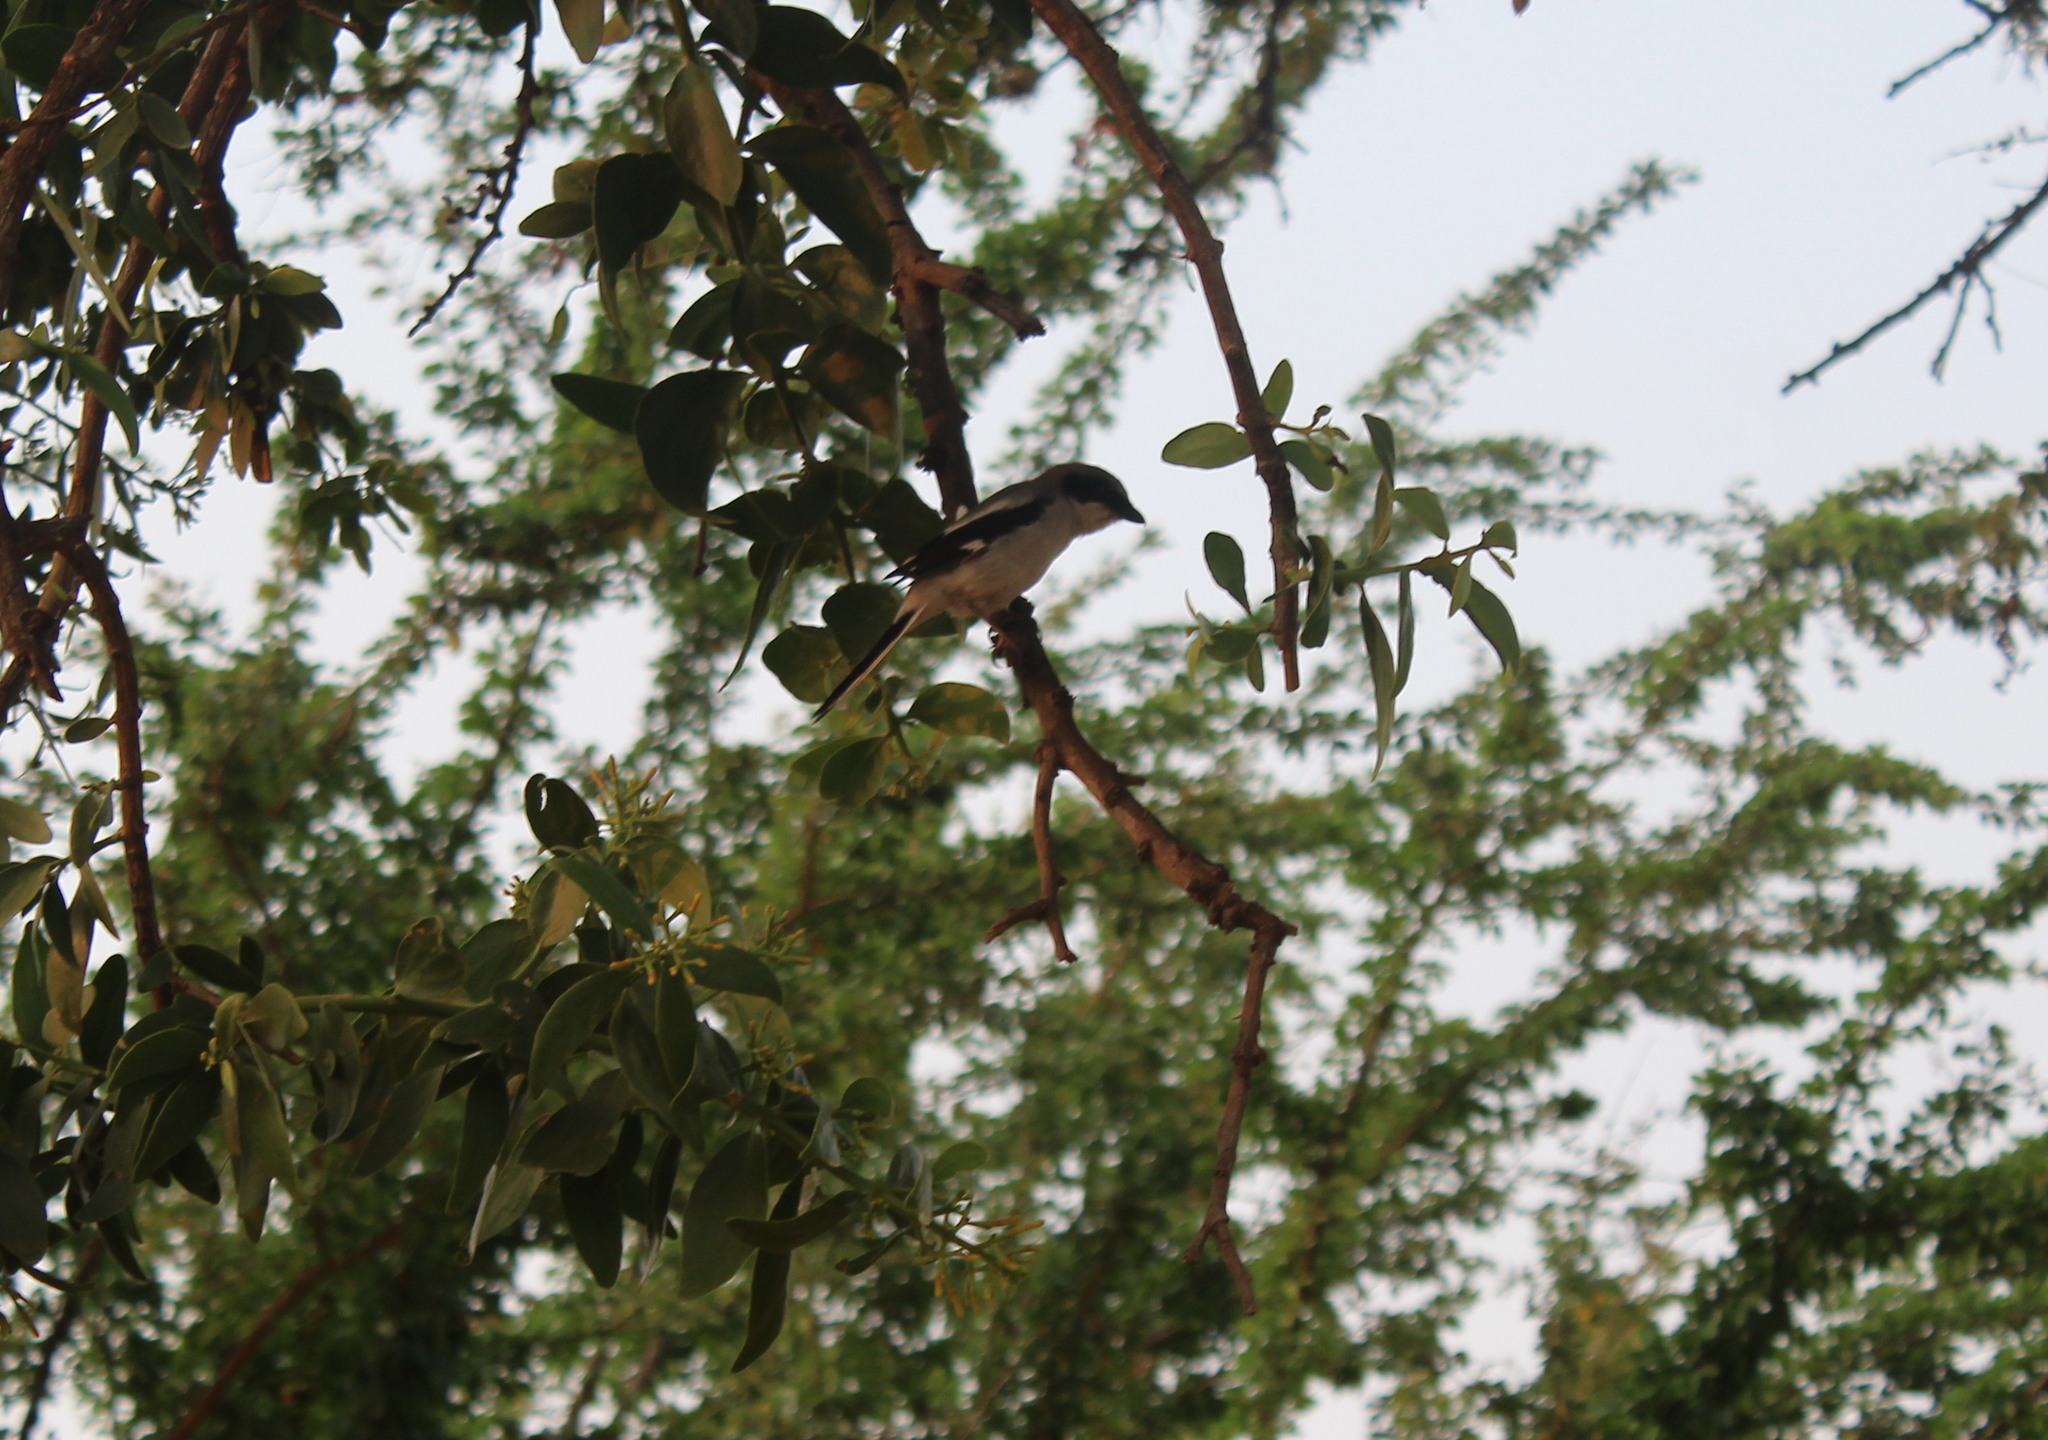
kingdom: Animalia
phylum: Chordata
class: Aves
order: Passeriformes
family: Laniidae
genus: Lanius
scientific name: Lanius ludovicianus
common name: Loggerhead shrike
